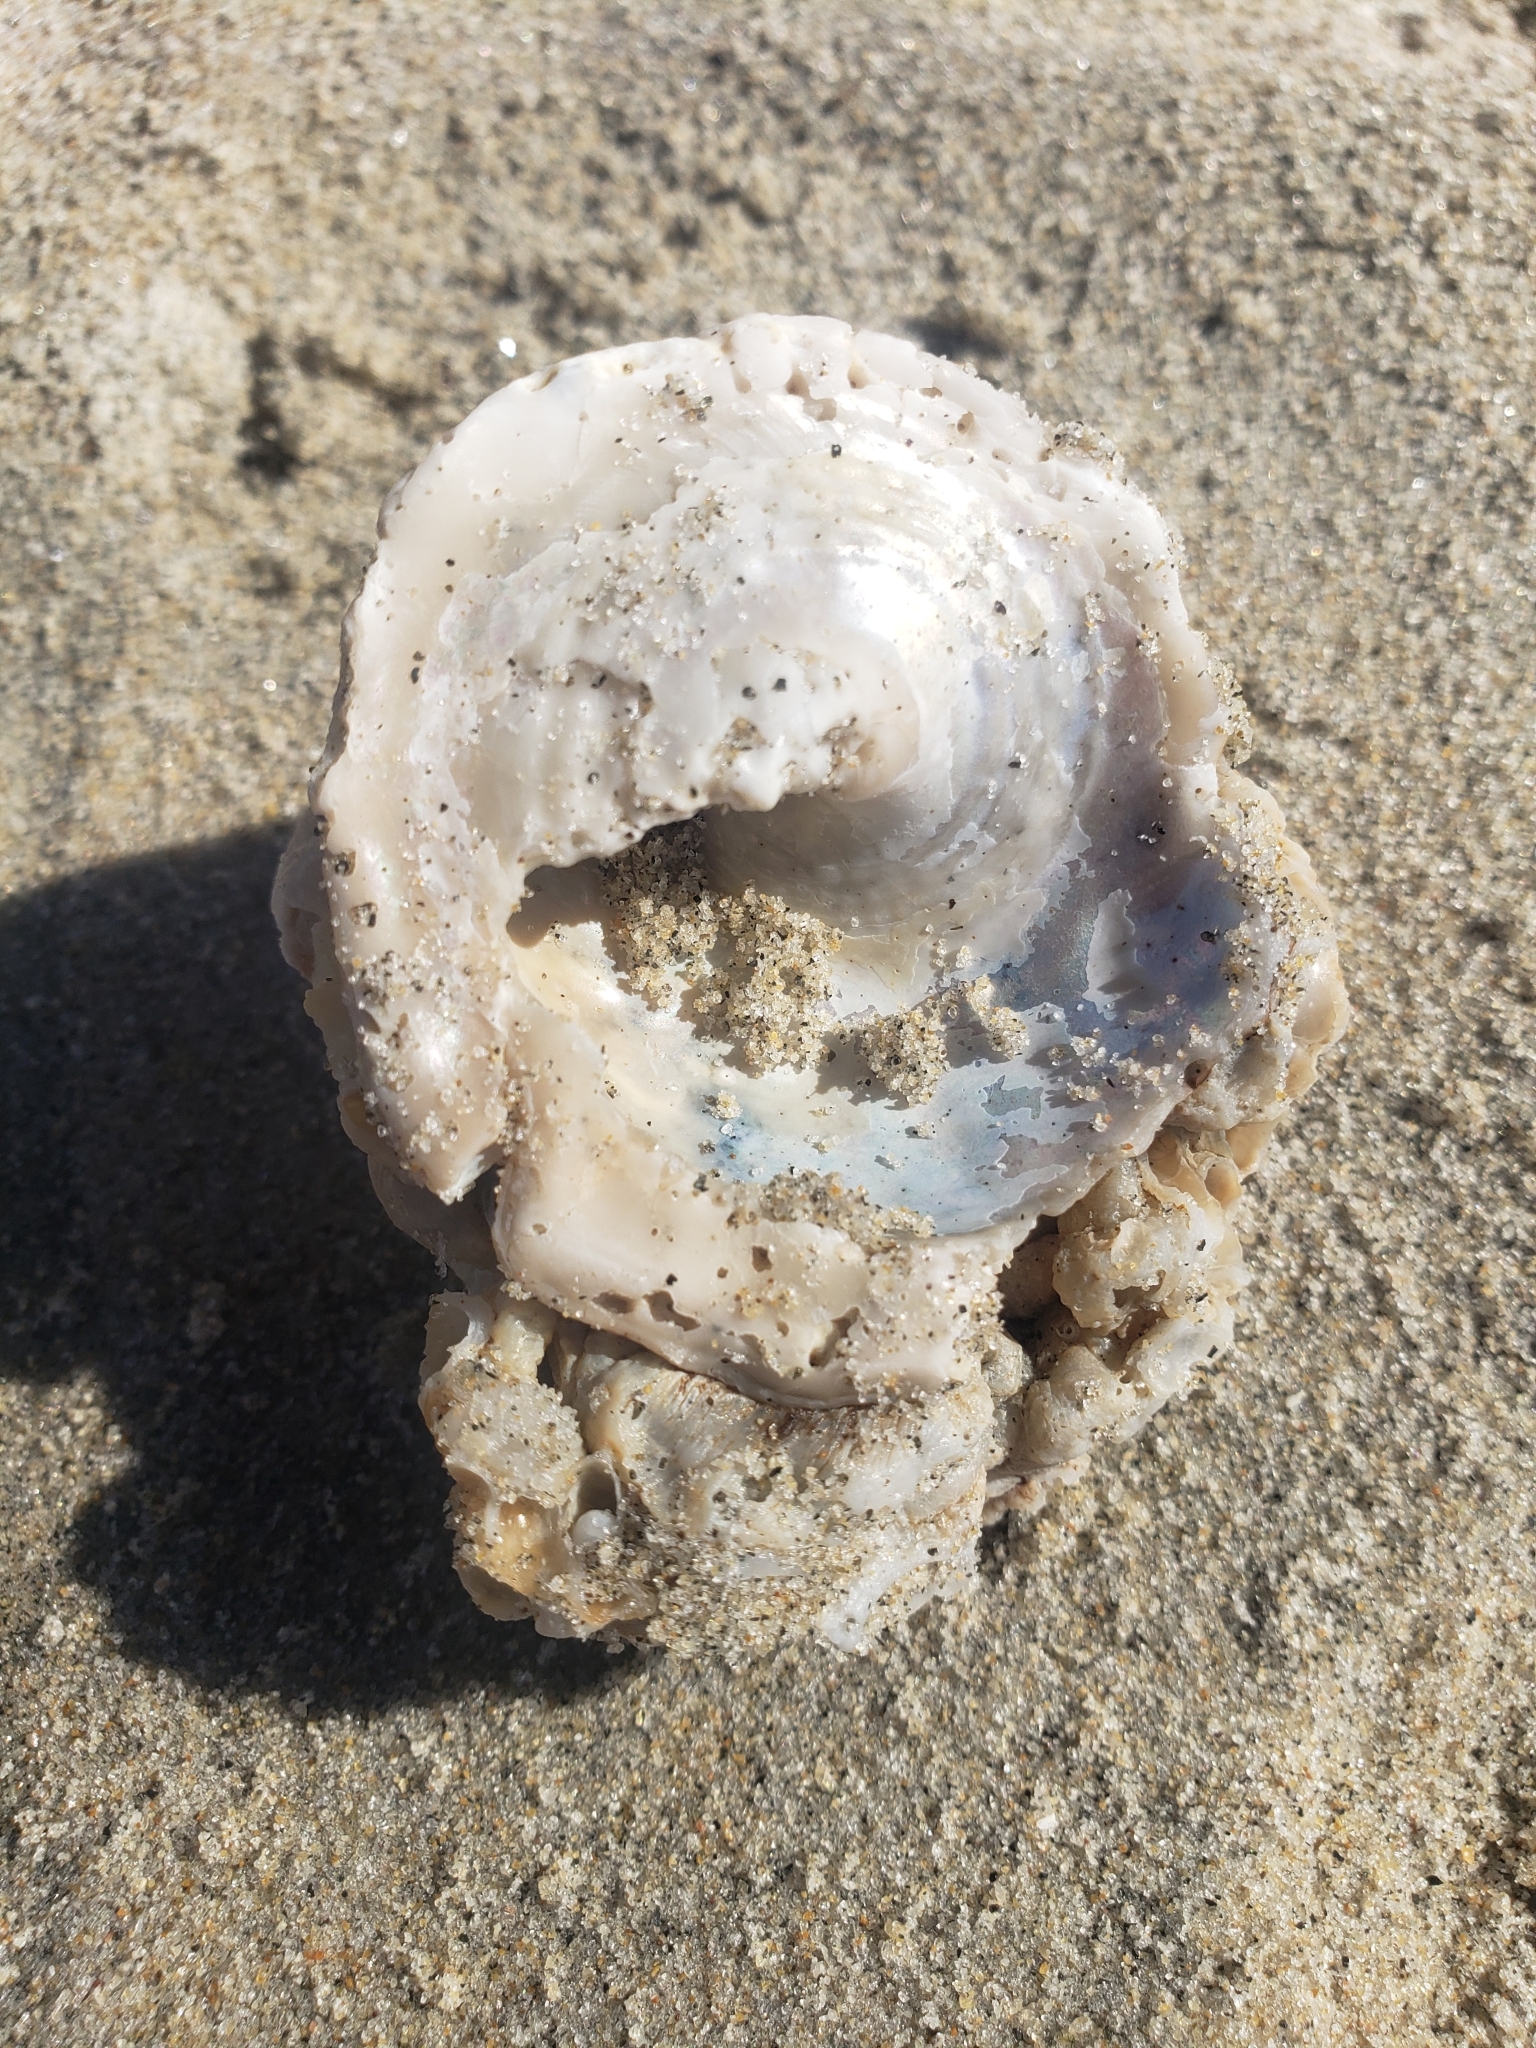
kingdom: Animalia
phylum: Mollusca
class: Gastropoda
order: Trochida
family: Turbinidae
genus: Megastraea
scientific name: Megastraea undosa
